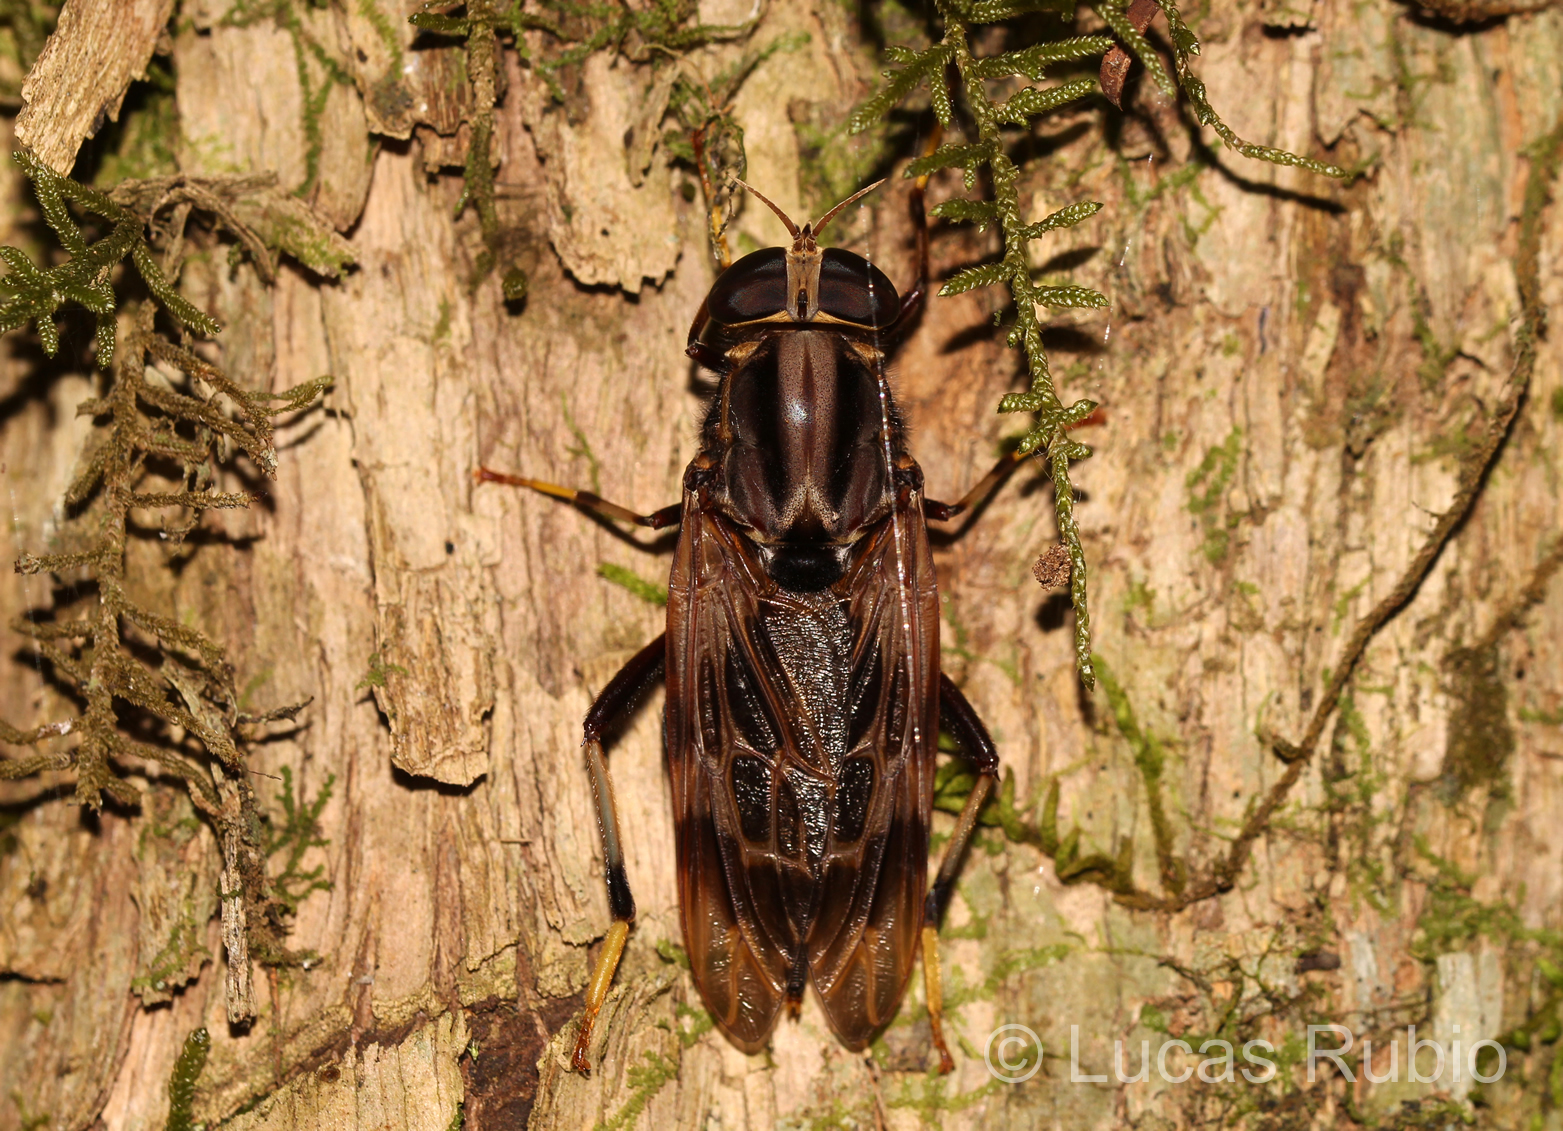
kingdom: Animalia
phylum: Arthropoda
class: Insecta
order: Diptera
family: Pantophthalmidae
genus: Pantophthalmus
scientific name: Pantophthalmus pictus
